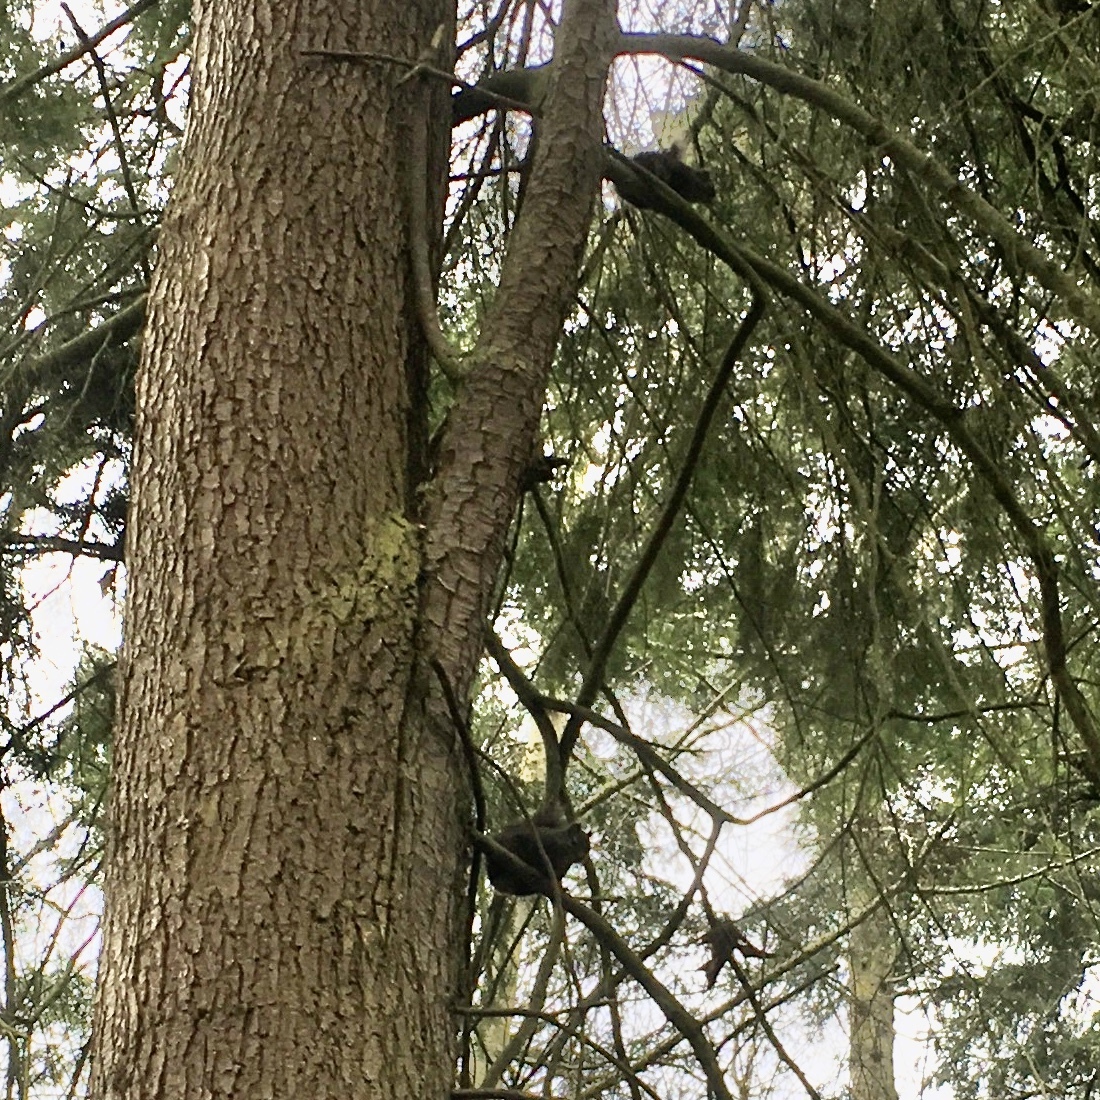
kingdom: Animalia
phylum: Chordata
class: Mammalia
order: Rodentia
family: Sciuridae
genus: Tamiasciurus
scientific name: Tamiasciurus douglasii
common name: Douglas's squirrel
